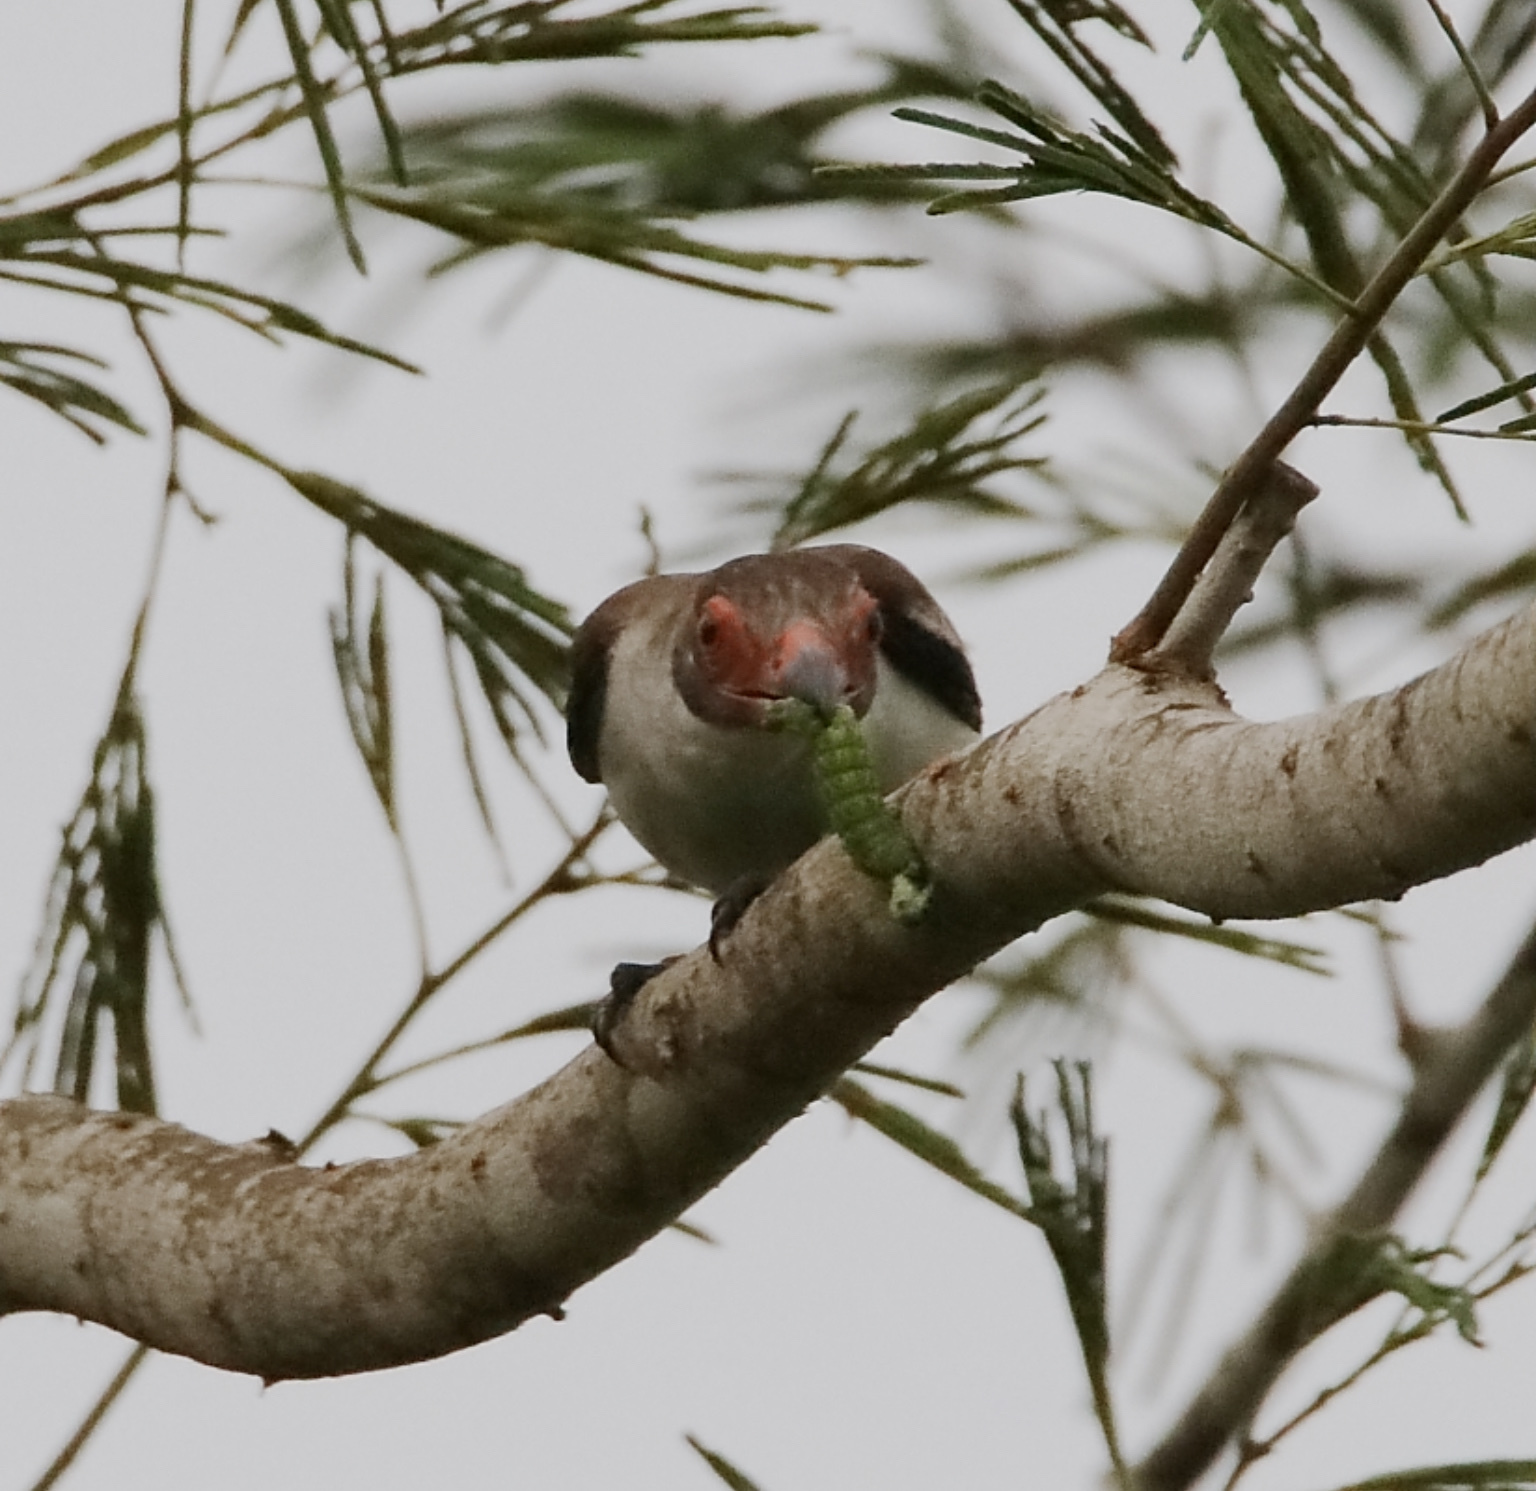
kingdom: Animalia
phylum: Chordata
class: Aves
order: Passeriformes
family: Cotingidae
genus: Tityra
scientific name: Tityra semifasciata
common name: Masked tityra
